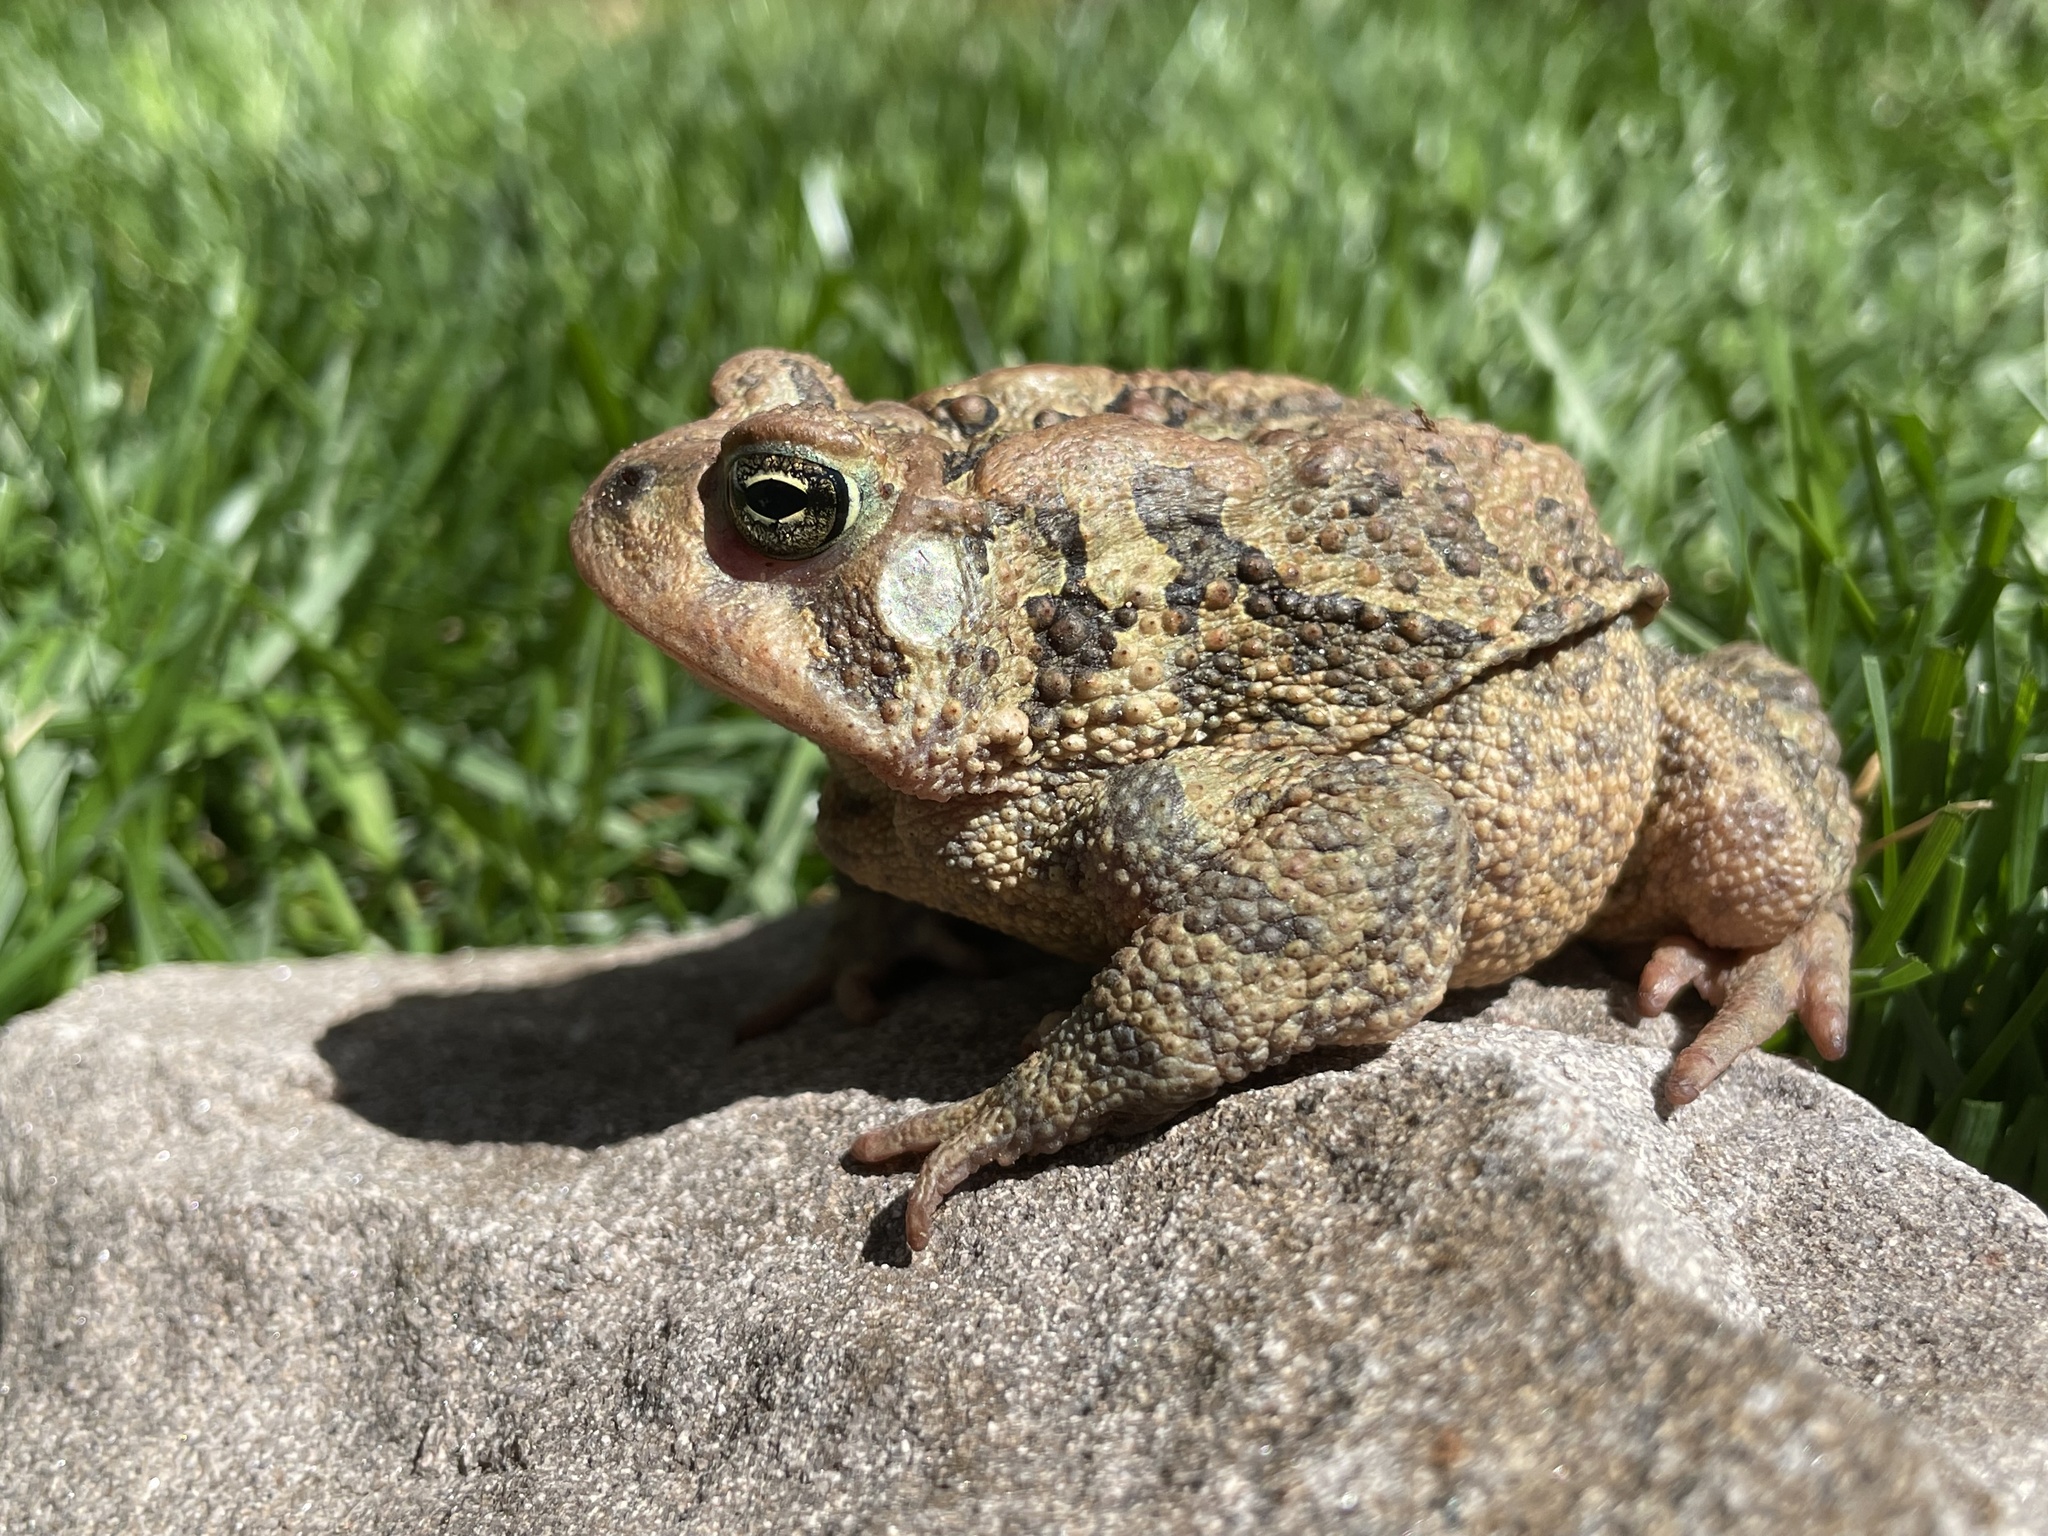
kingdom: Animalia
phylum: Chordata
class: Amphibia
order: Anura
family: Bufonidae
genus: Anaxyrus
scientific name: Anaxyrus americanus
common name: American toad
